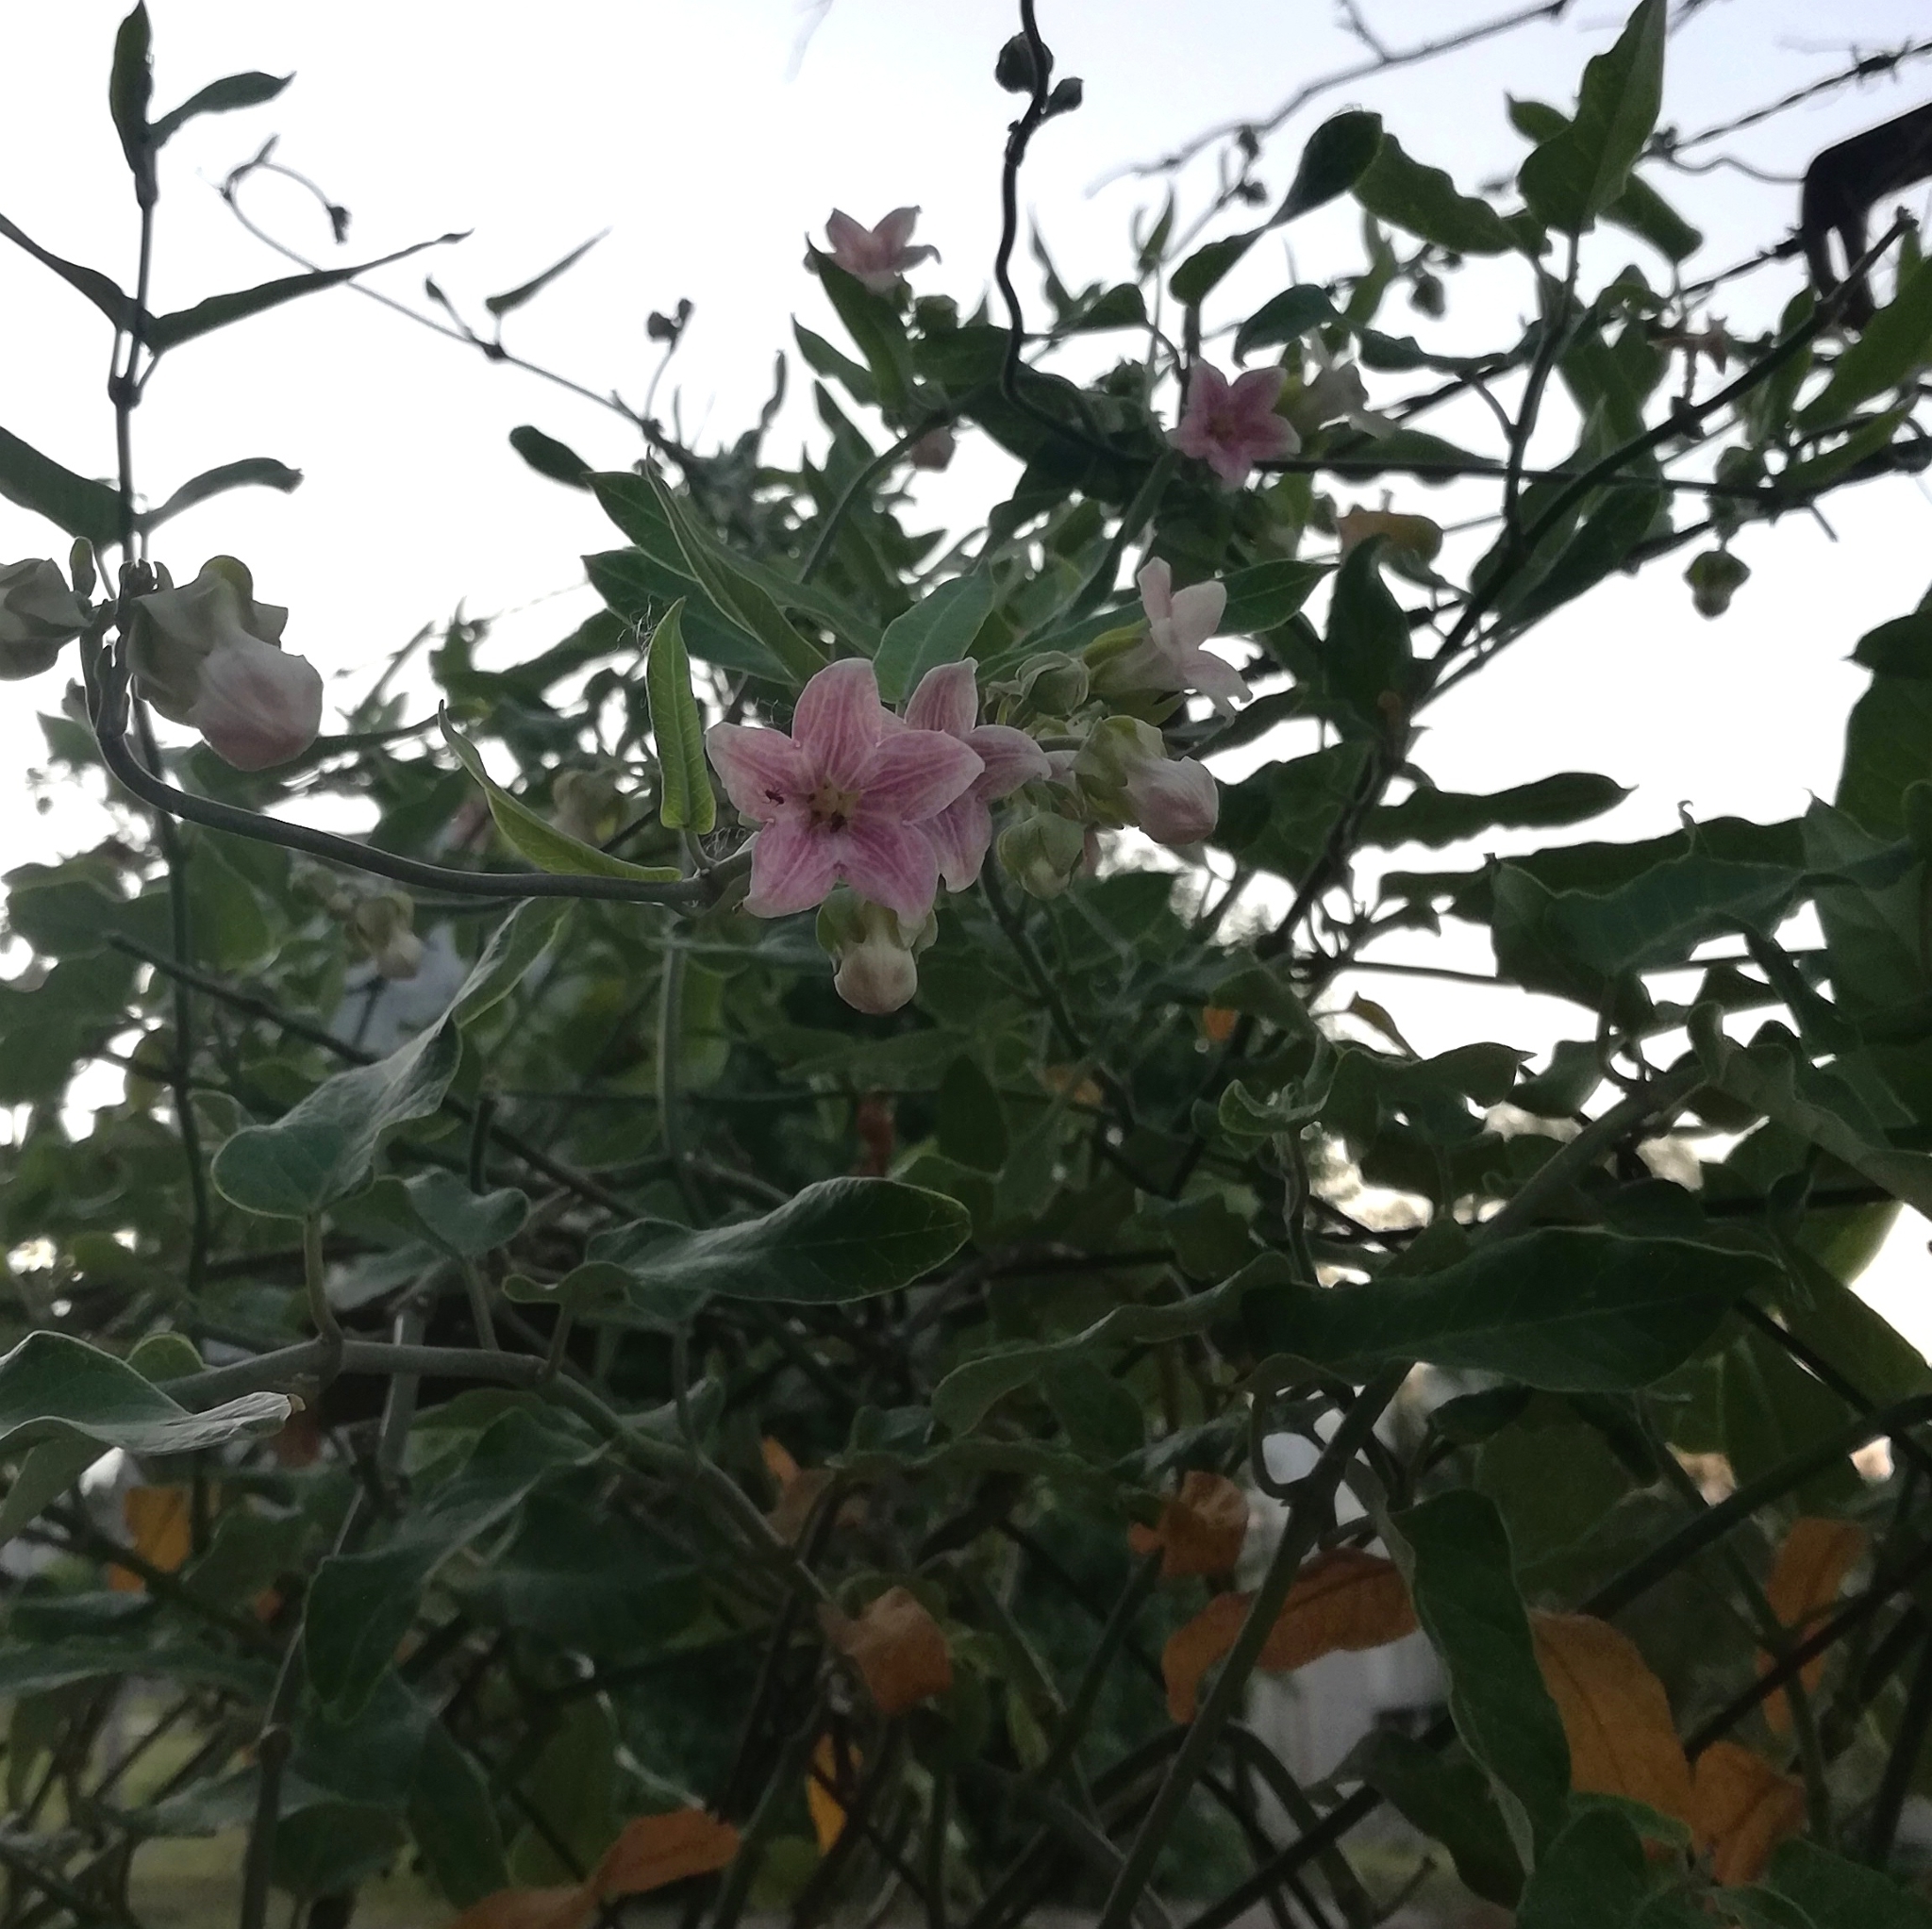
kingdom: Plantae
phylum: Tracheophyta
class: Magnoliopsida
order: Gentianales
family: Apocynaceae
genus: Araujia
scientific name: Araujia sericifera
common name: White bladderflower
